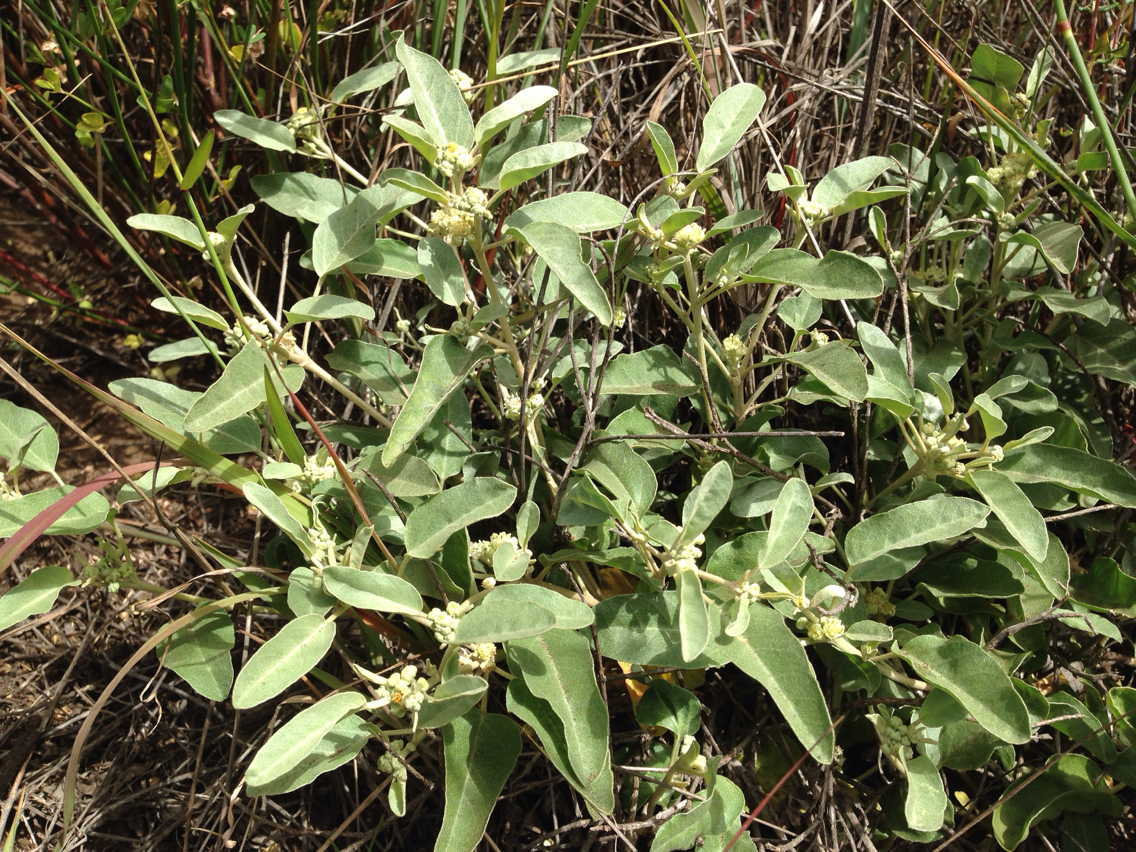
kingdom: Plantae
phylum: Tracheophyta
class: Magnoliopsida
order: Malpighiales
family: Euphorbiaceae
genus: Croton
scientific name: Croton californicus
